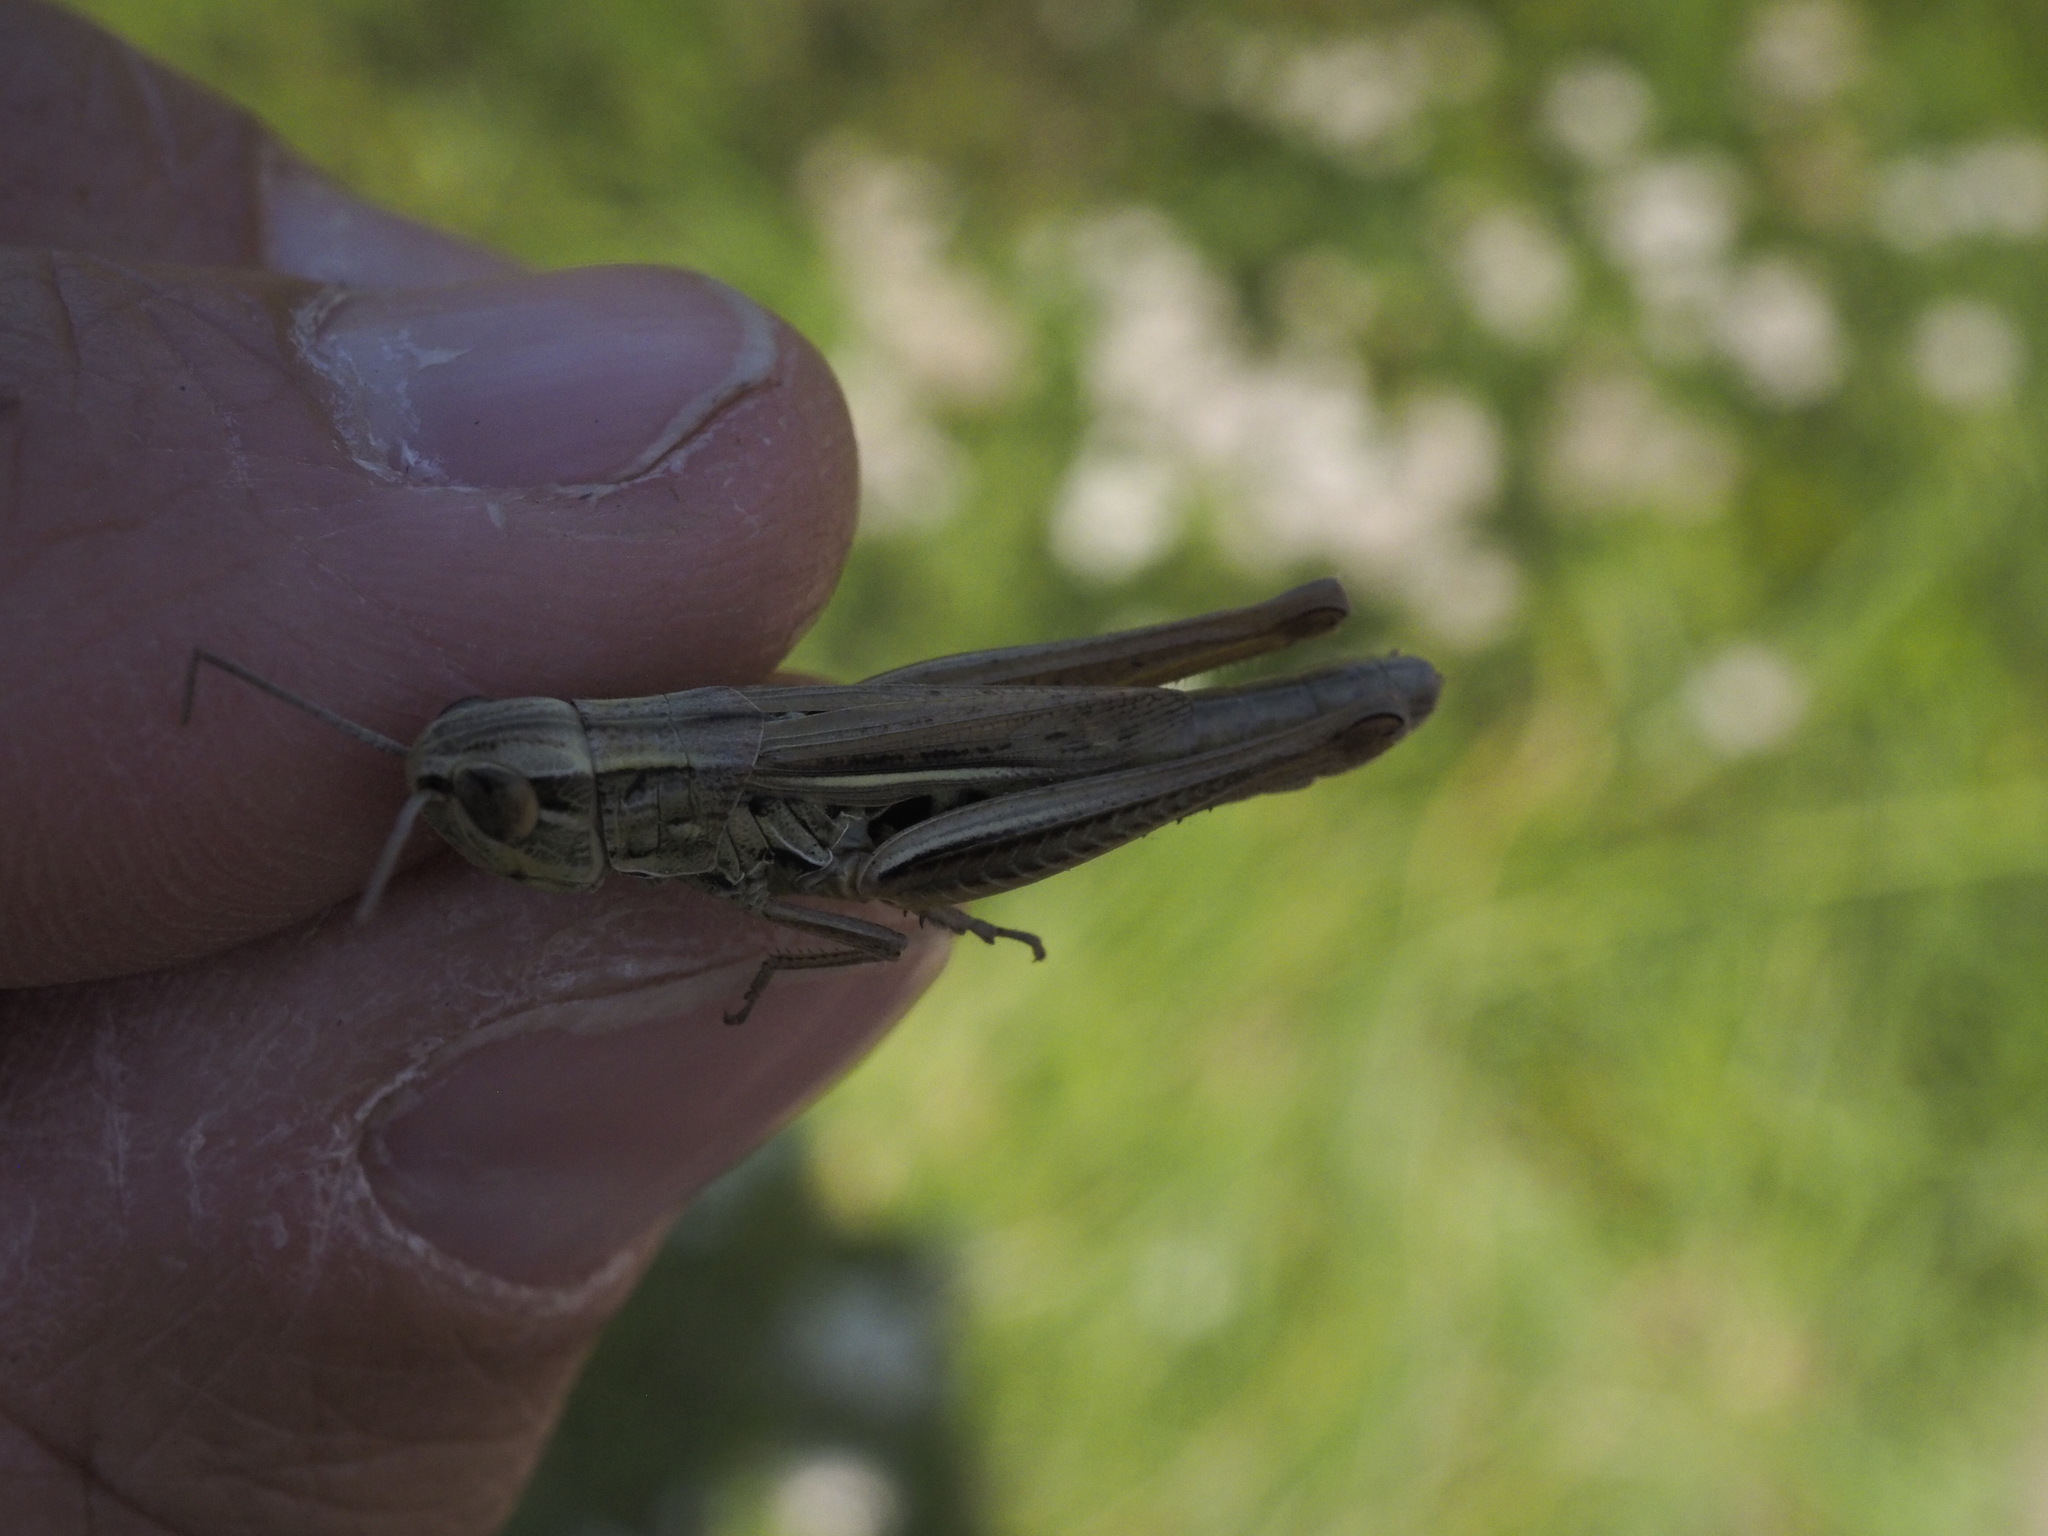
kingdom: Animalia
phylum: Arthropoda
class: Insecta
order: Orthoptera
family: Acrididae
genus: Euchorthippus
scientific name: Euchorthippus declivus
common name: Common straw grasshopper
